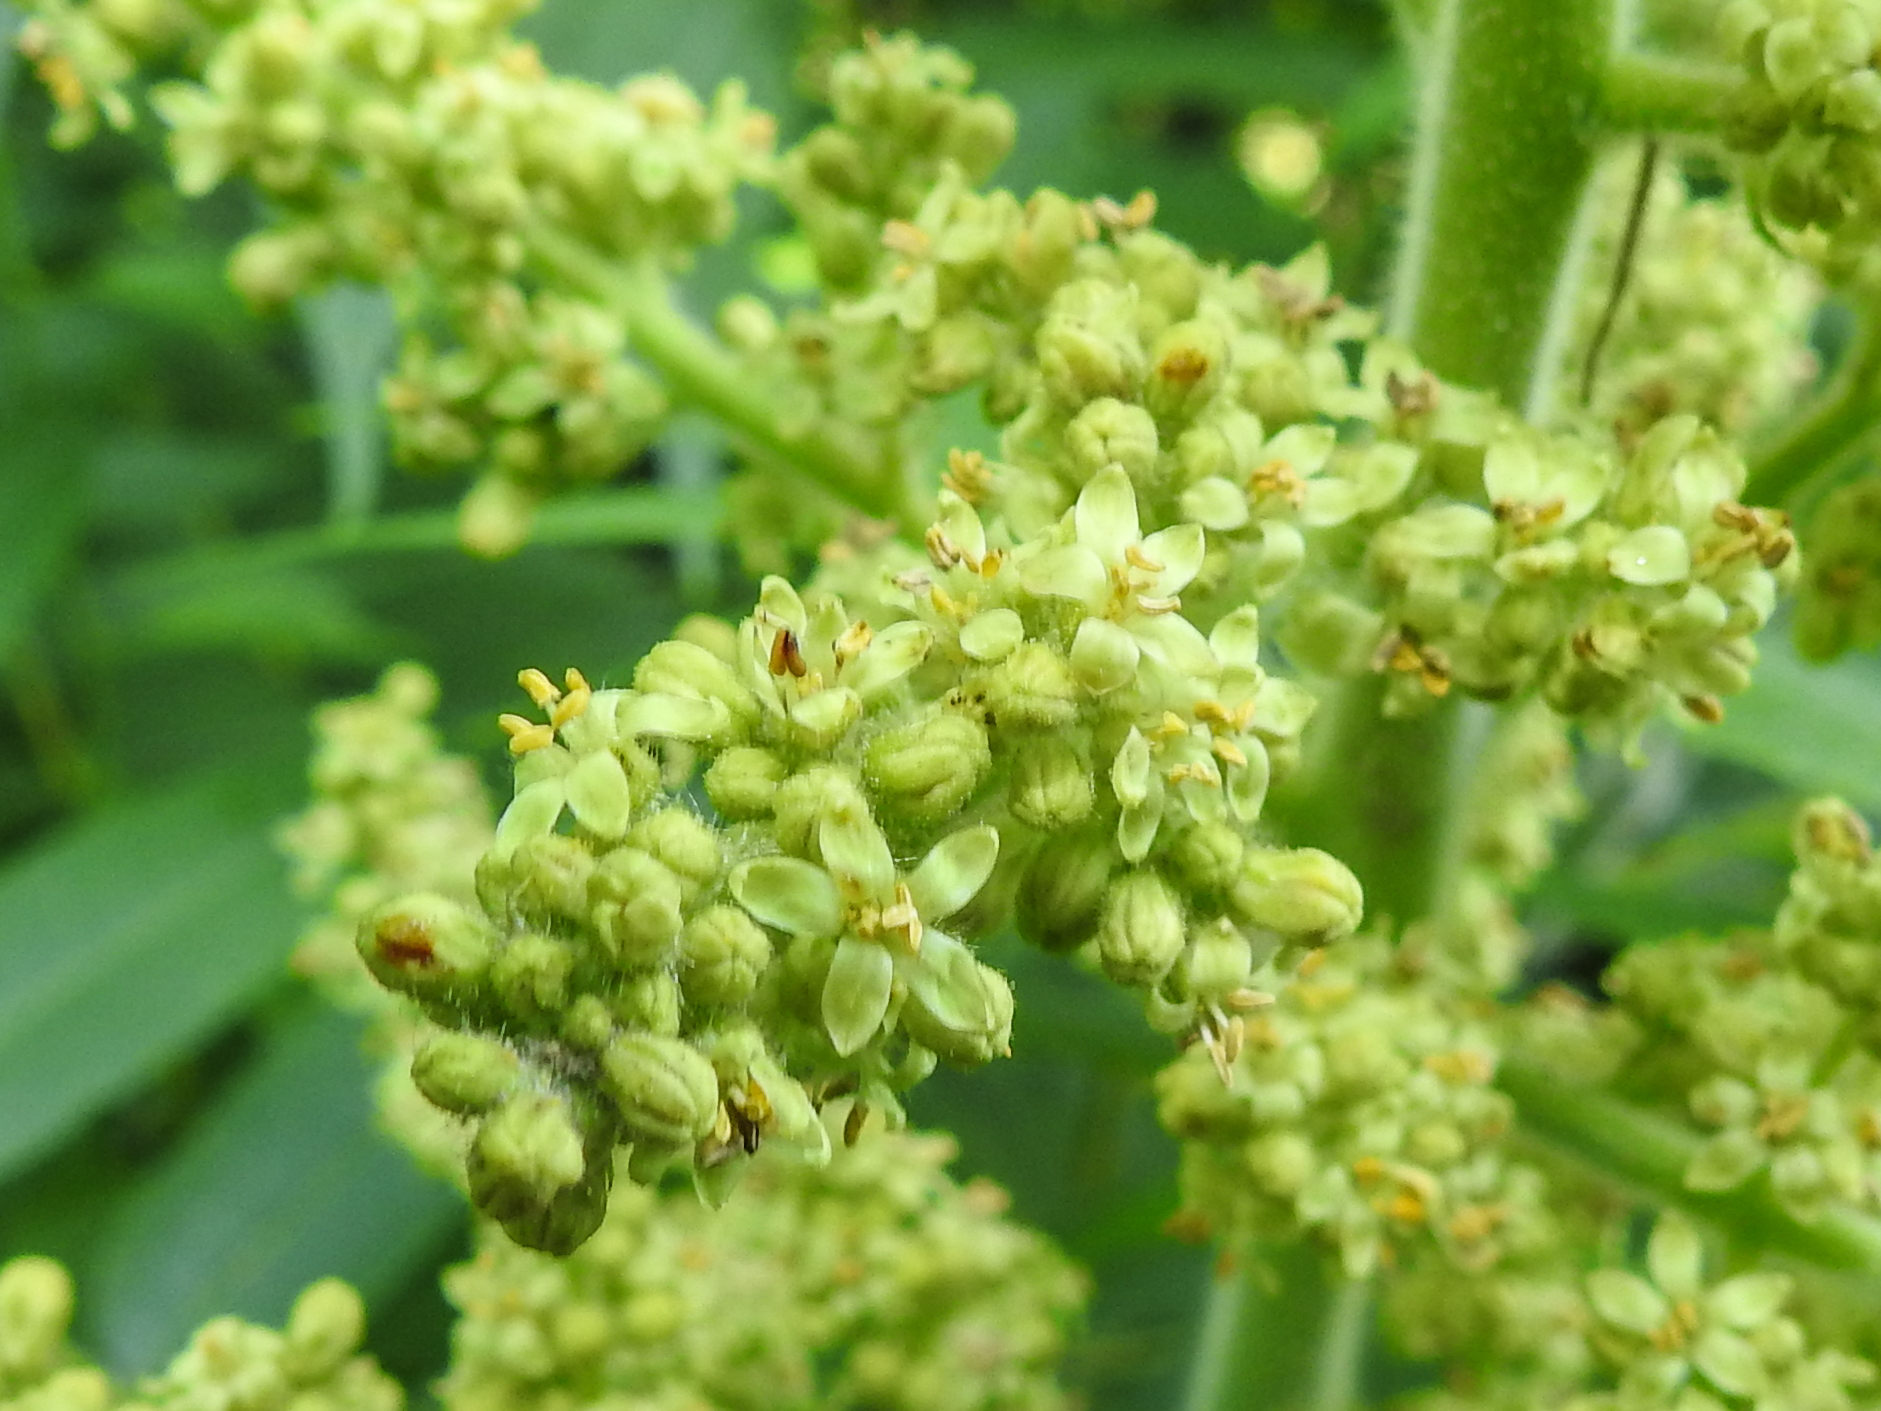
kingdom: Plantae
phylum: Tracheophyta
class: Magnoliopsida
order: Sapindales
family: Anacardiaceae
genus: Rhus
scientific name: Rhus typhina
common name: Staghorn sumac
